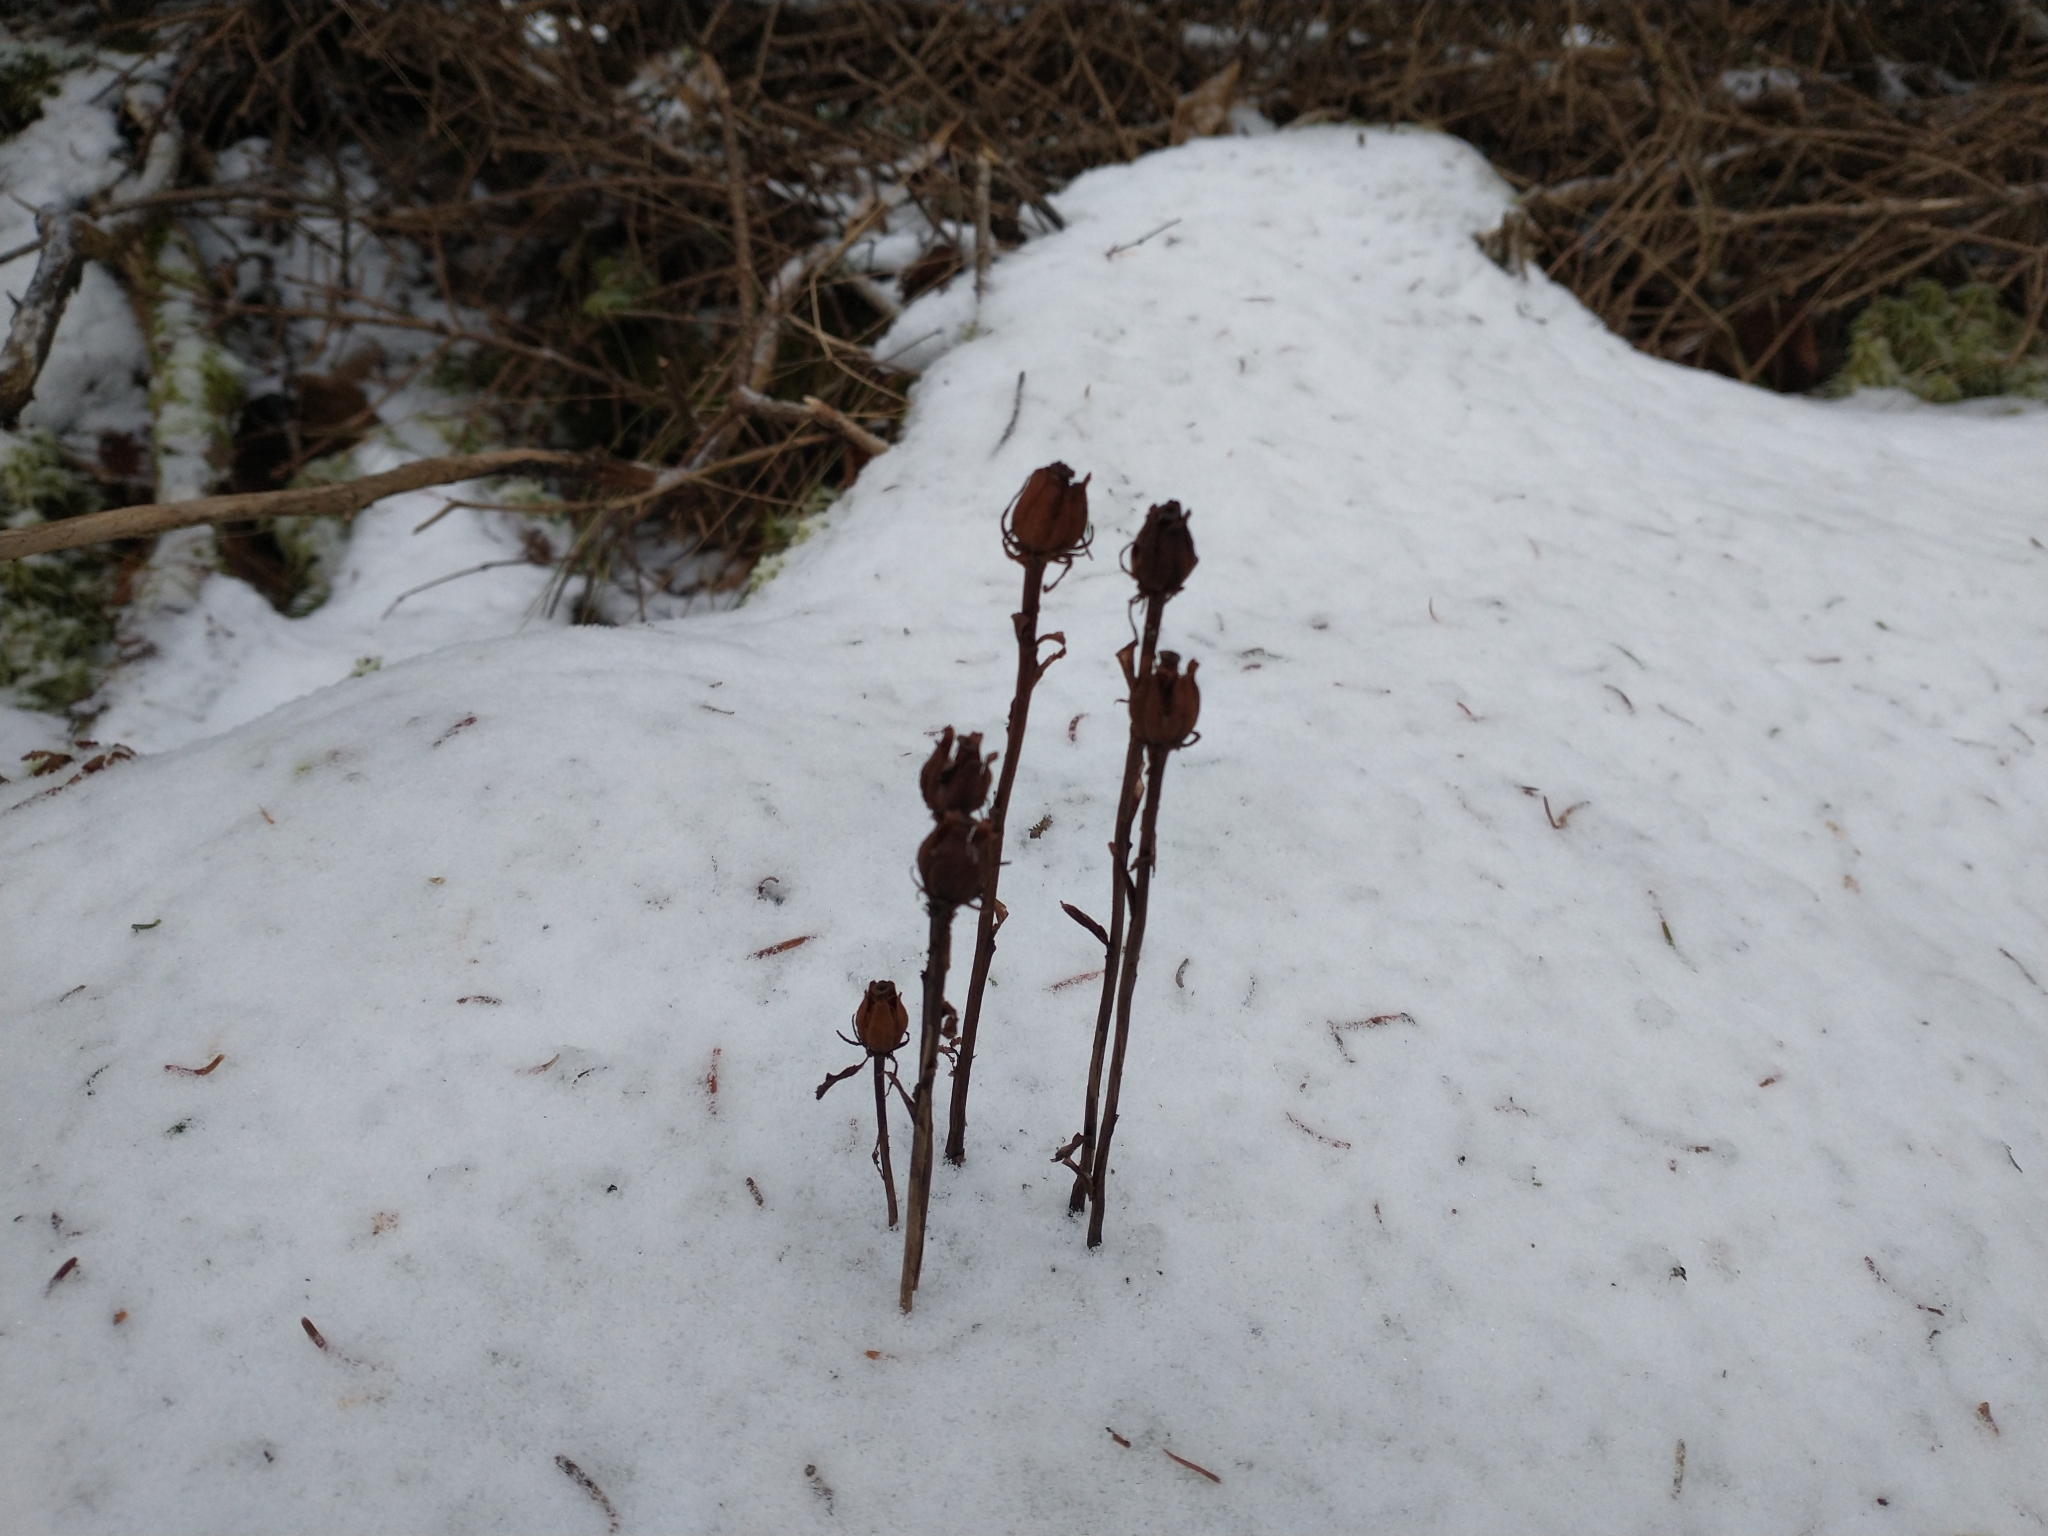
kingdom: Plantae
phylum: Tracheophyta
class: Magnoliopsida
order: Ericales
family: Ericaceae
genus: Monotropa
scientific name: Monotropa uniflora
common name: Convulsion root
